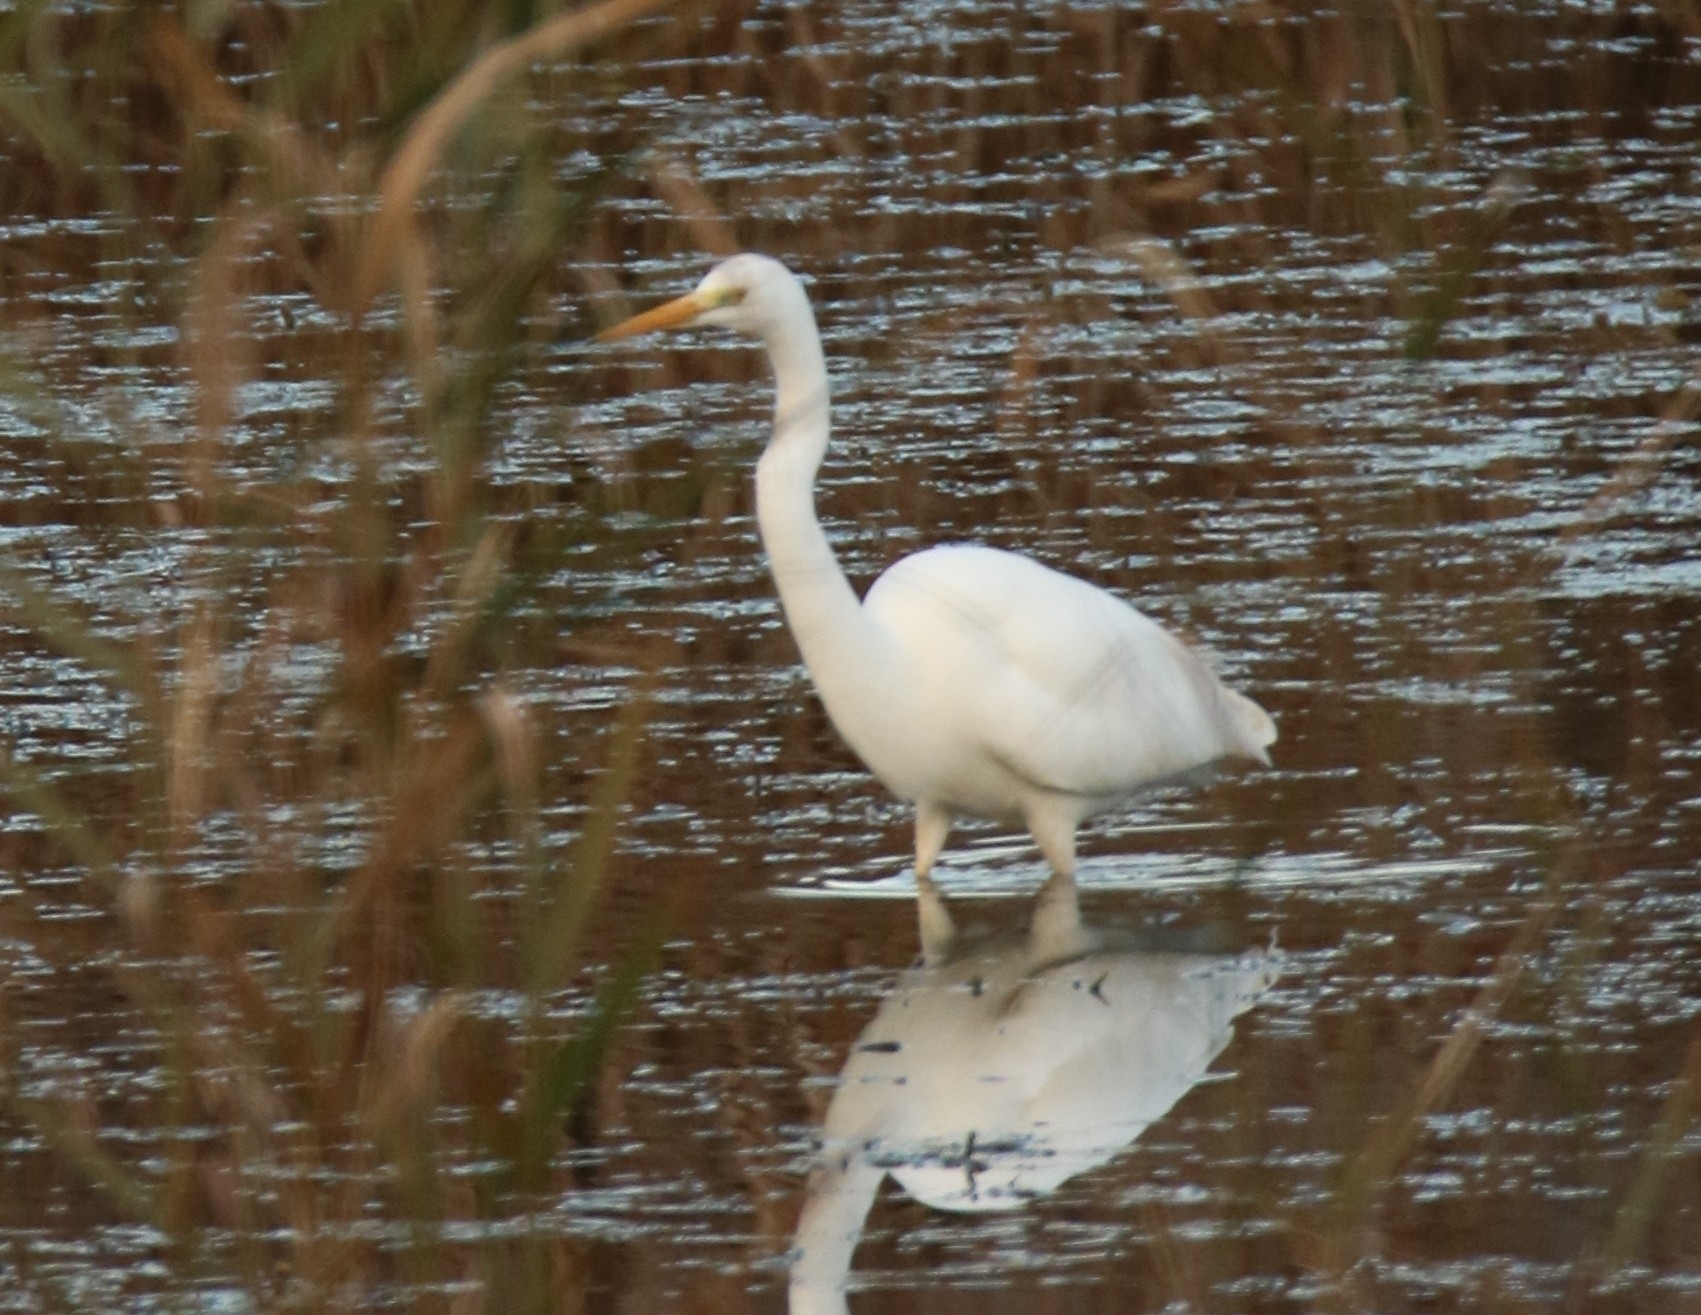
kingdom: Animalia
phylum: Chordata
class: Aves
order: Pelecaniformes
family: Ardeidae
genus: Ardea
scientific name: Ardea alba
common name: Great egret
